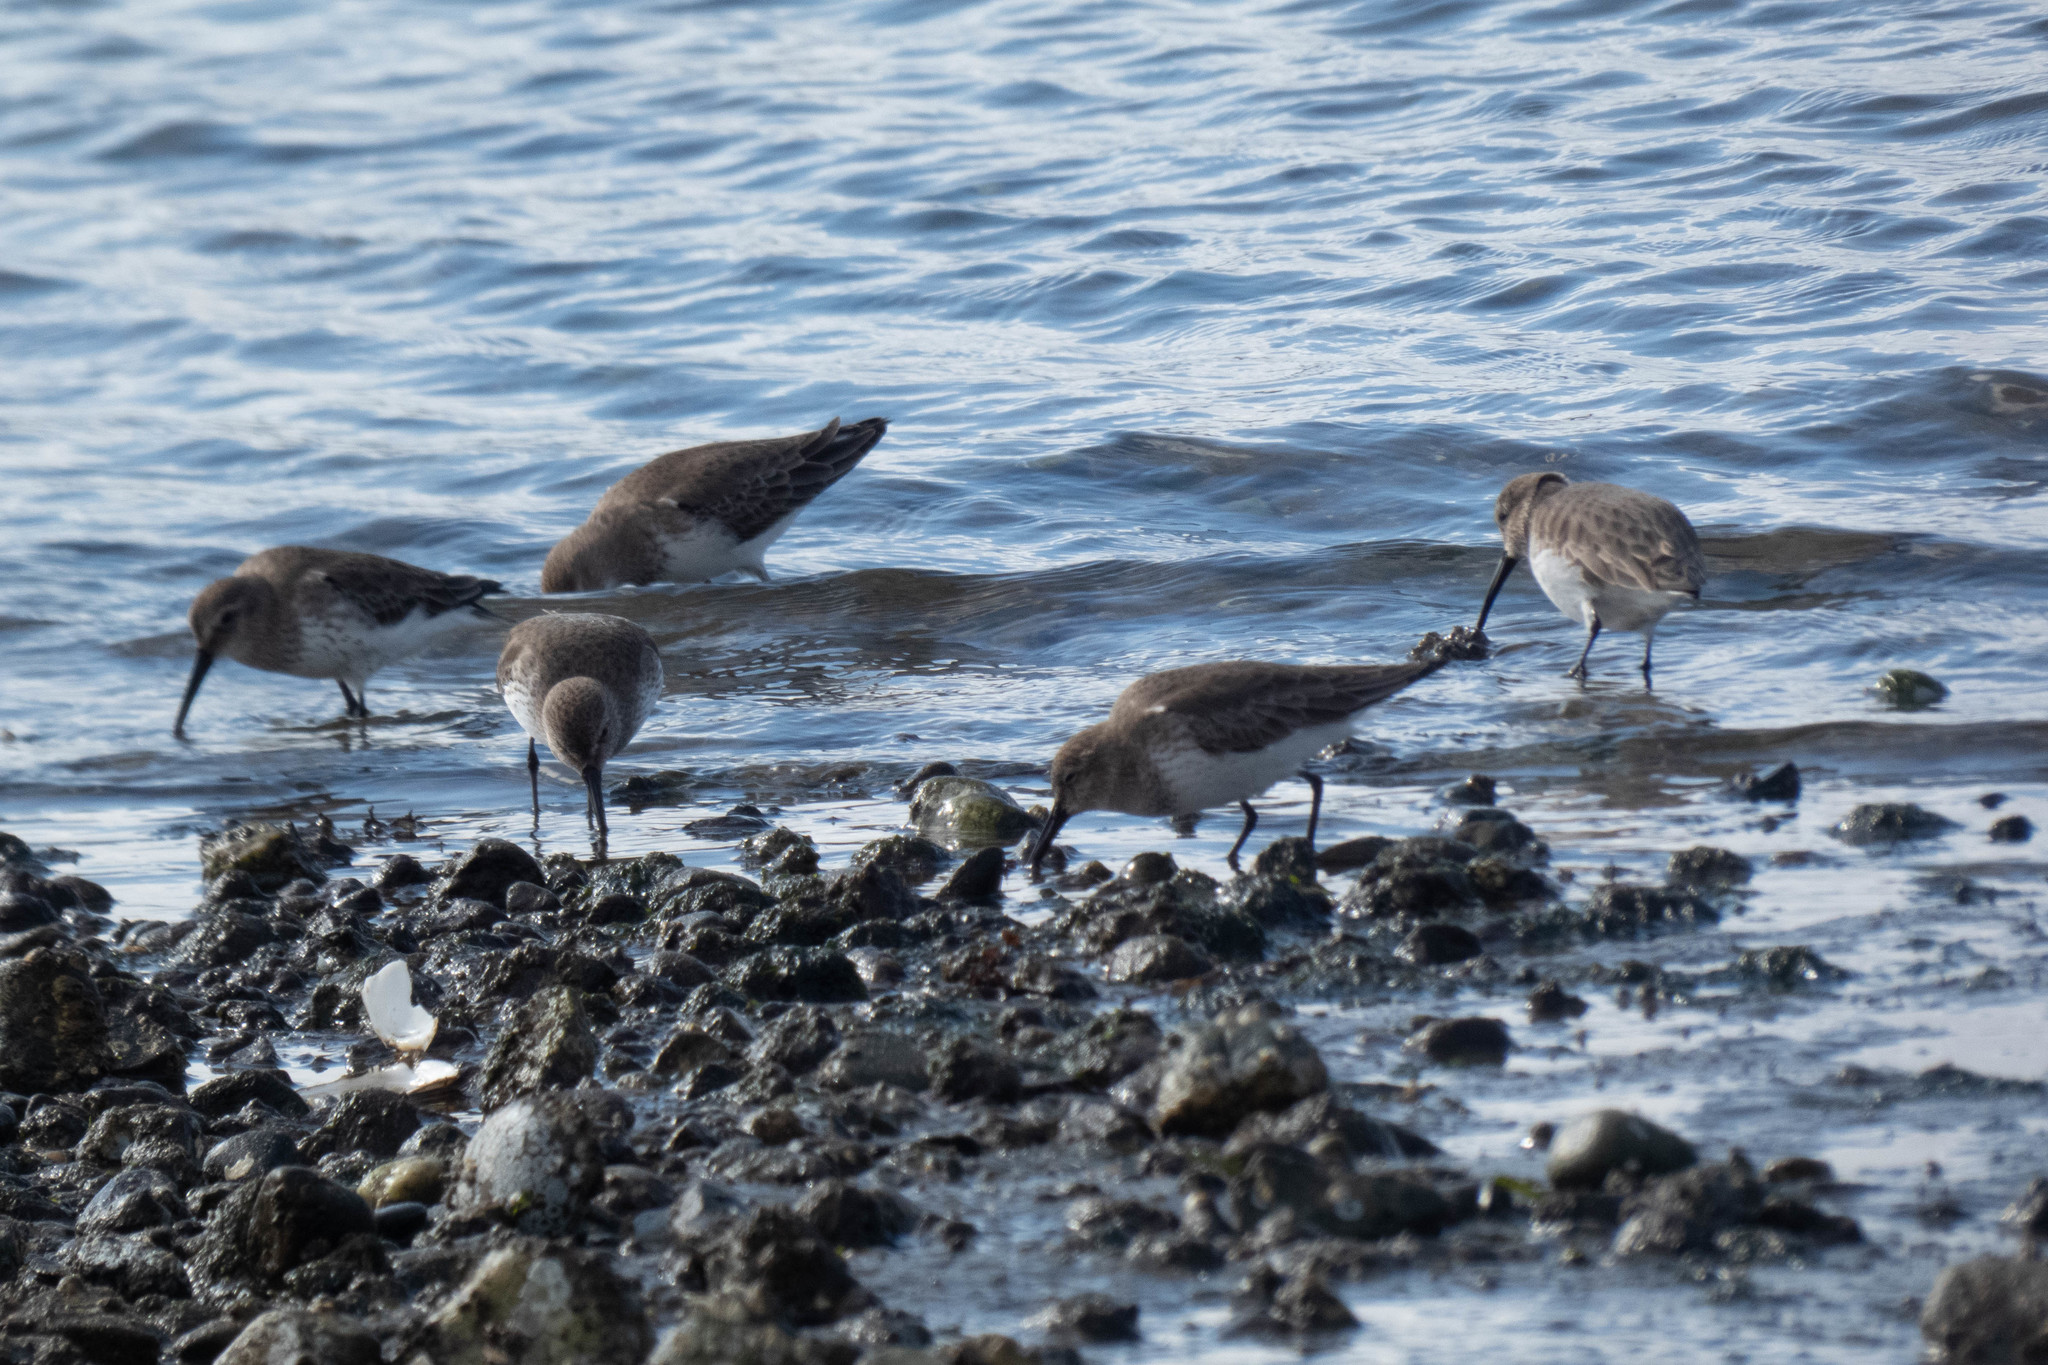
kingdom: Animalia
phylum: Chordata
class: Aves
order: Charadriiformes
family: Scolopacidae
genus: Calidris
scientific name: Calidris alpina
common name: Dunlin
